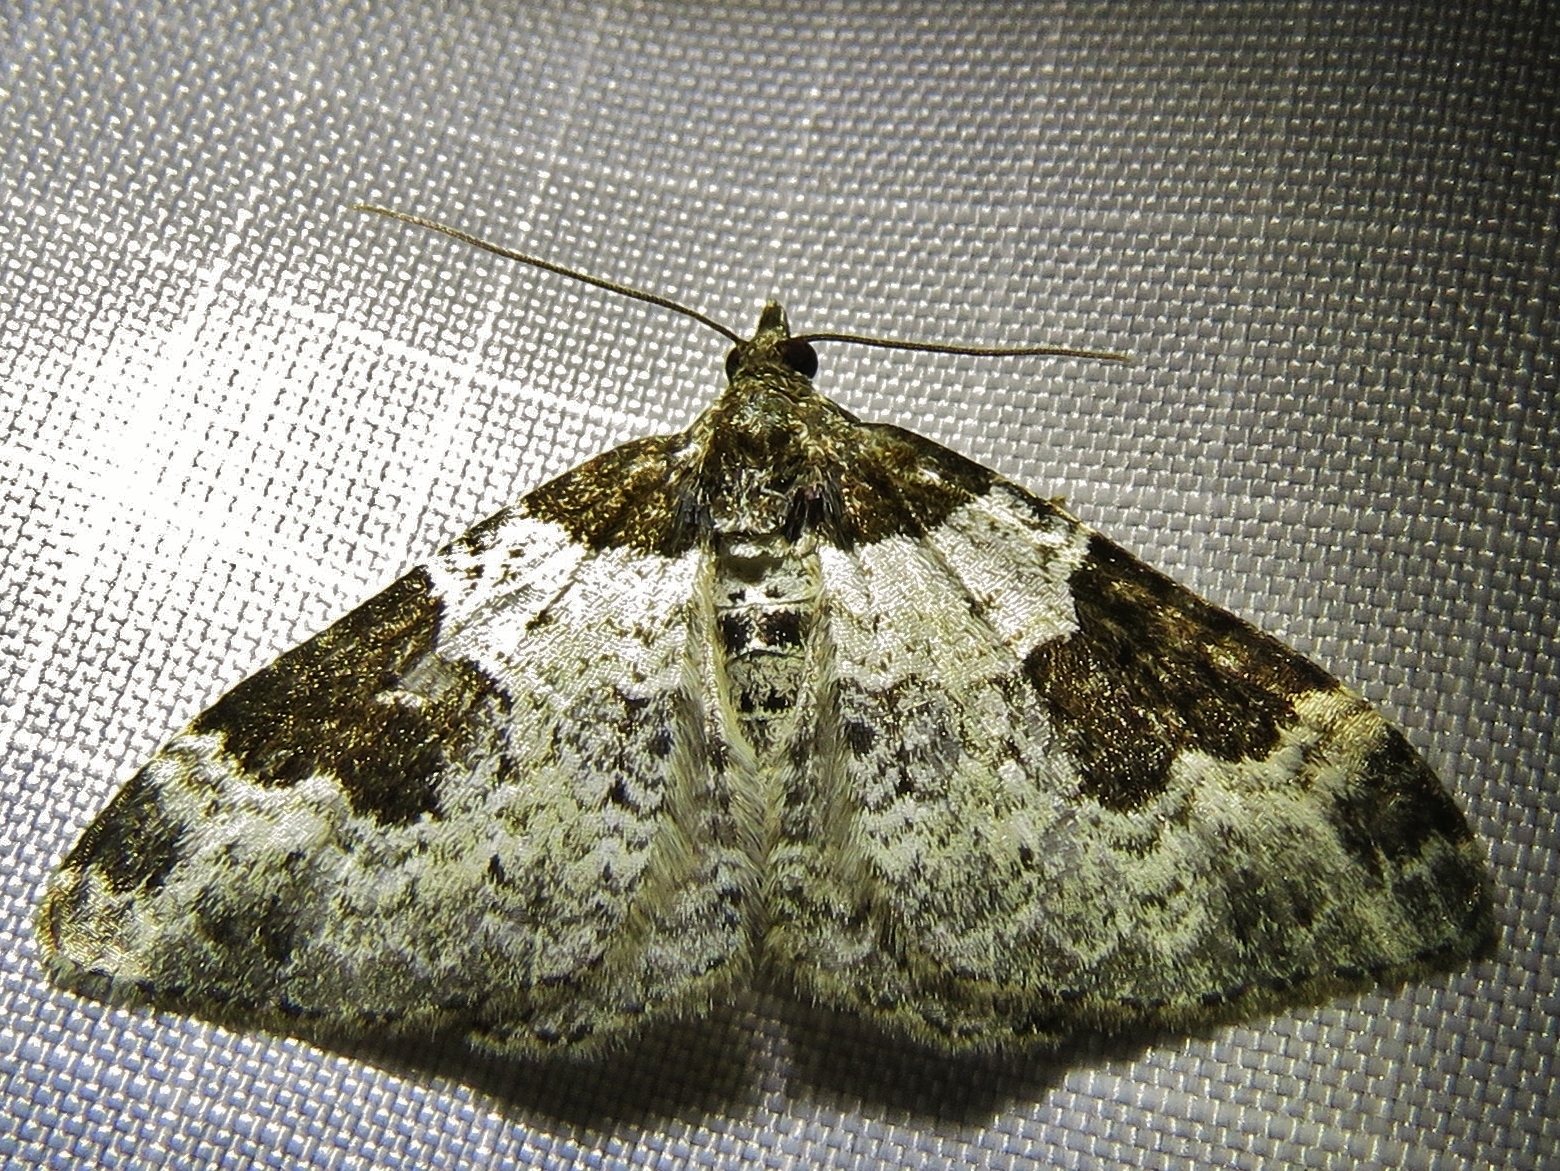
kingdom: Animalia
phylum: Arthropoda
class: Insecta
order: Lepidoptera
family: Geometridae
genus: Xanthorhoe
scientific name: Xanthorhoe fluctuata
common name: Garden carpet
